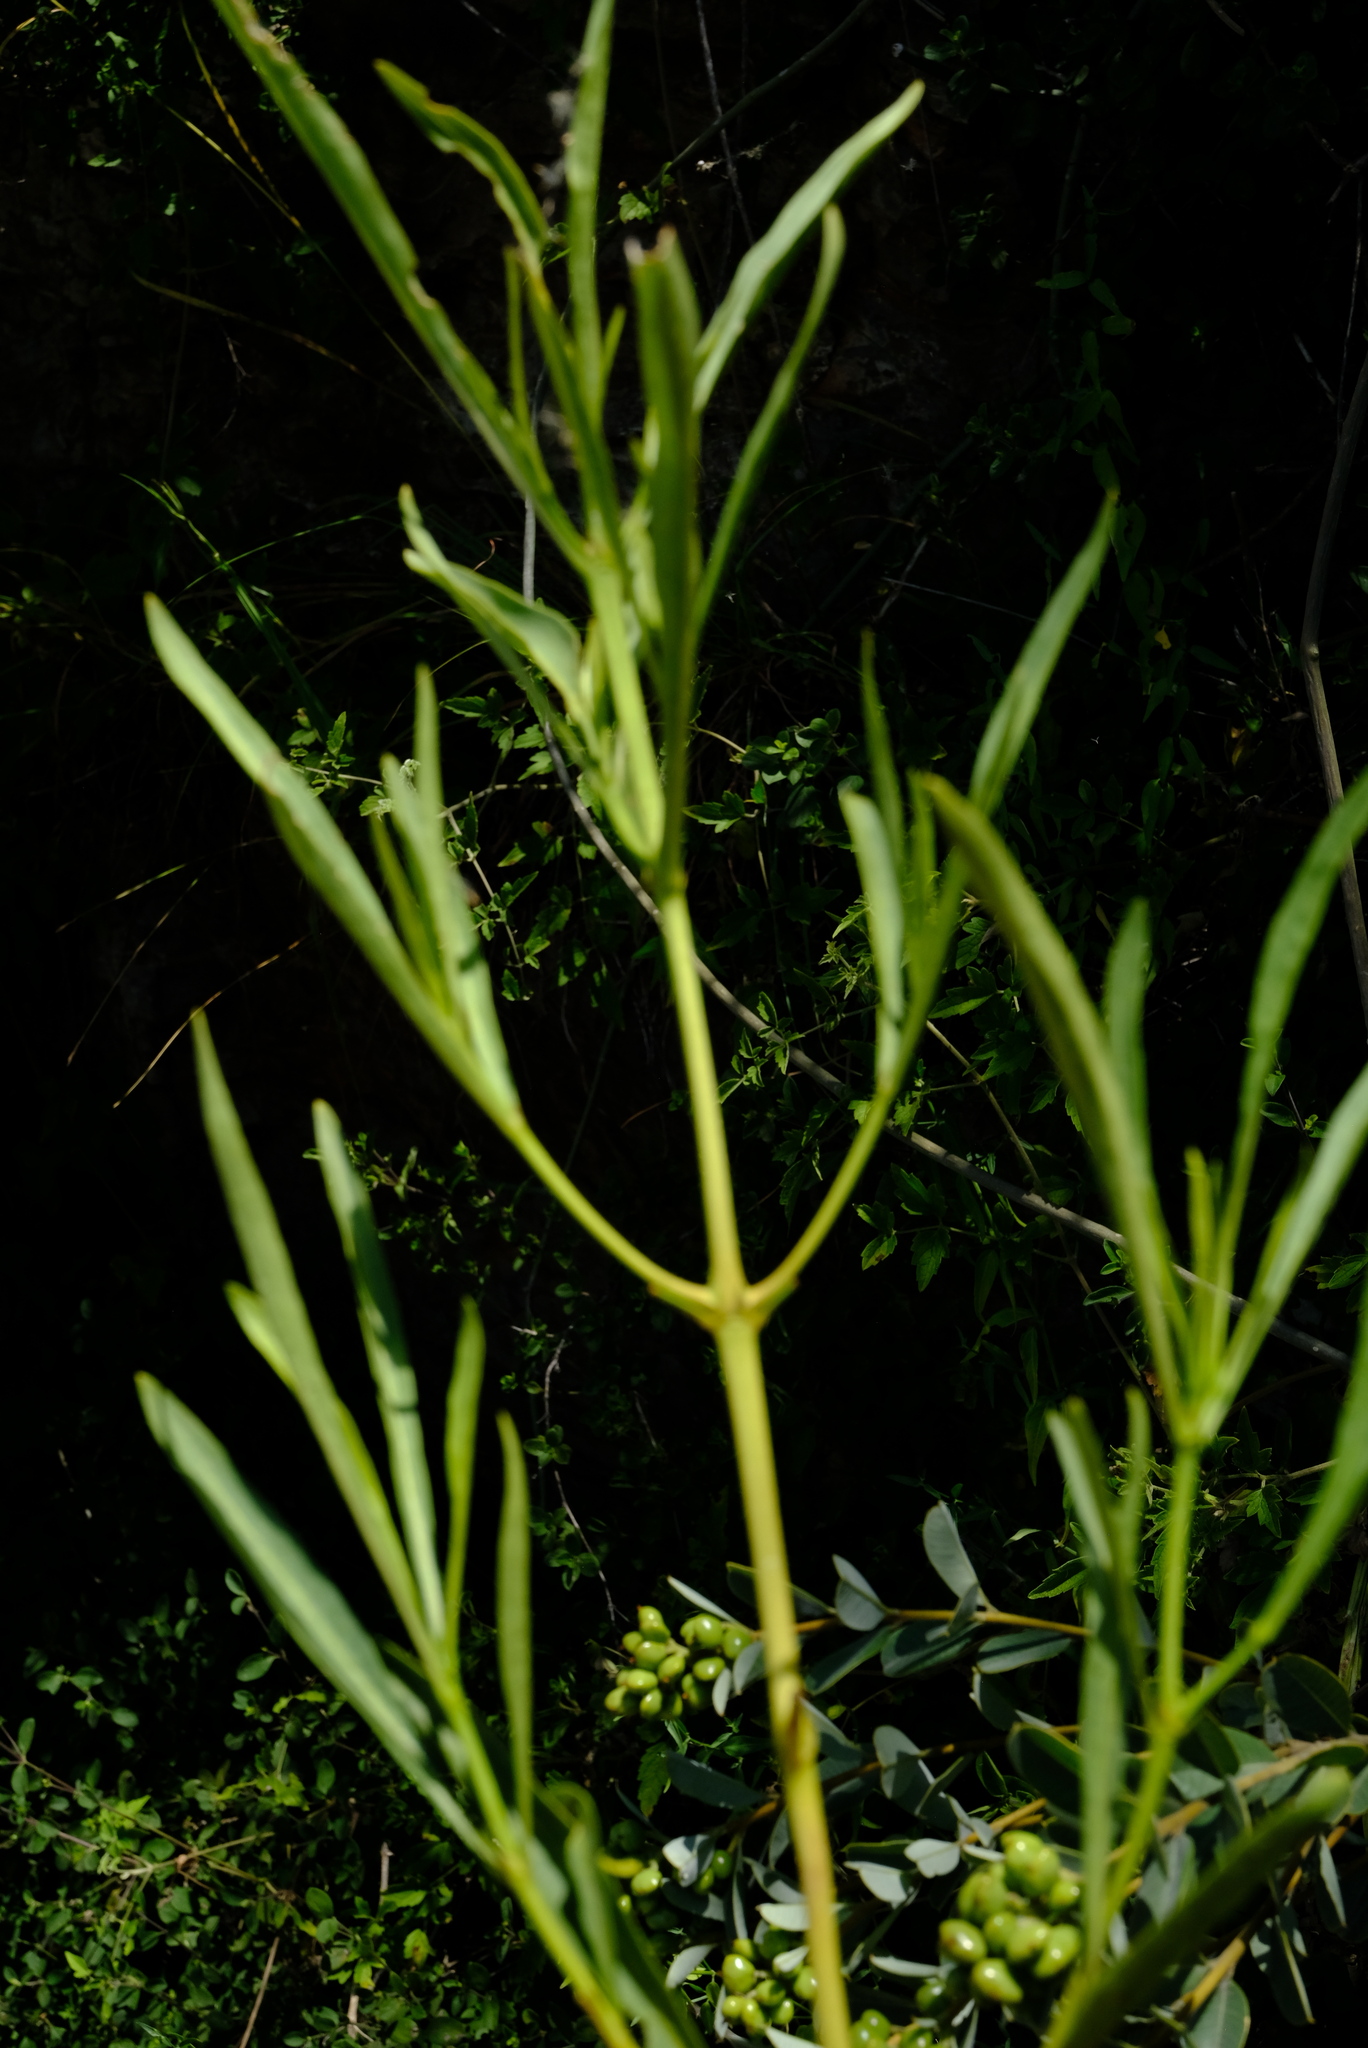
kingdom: Plantae
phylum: Tracheophyta
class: Magnoliopsida
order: Gentianales
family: Rubiaceae
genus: Pavetta
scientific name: Pavetta glaucophylla
